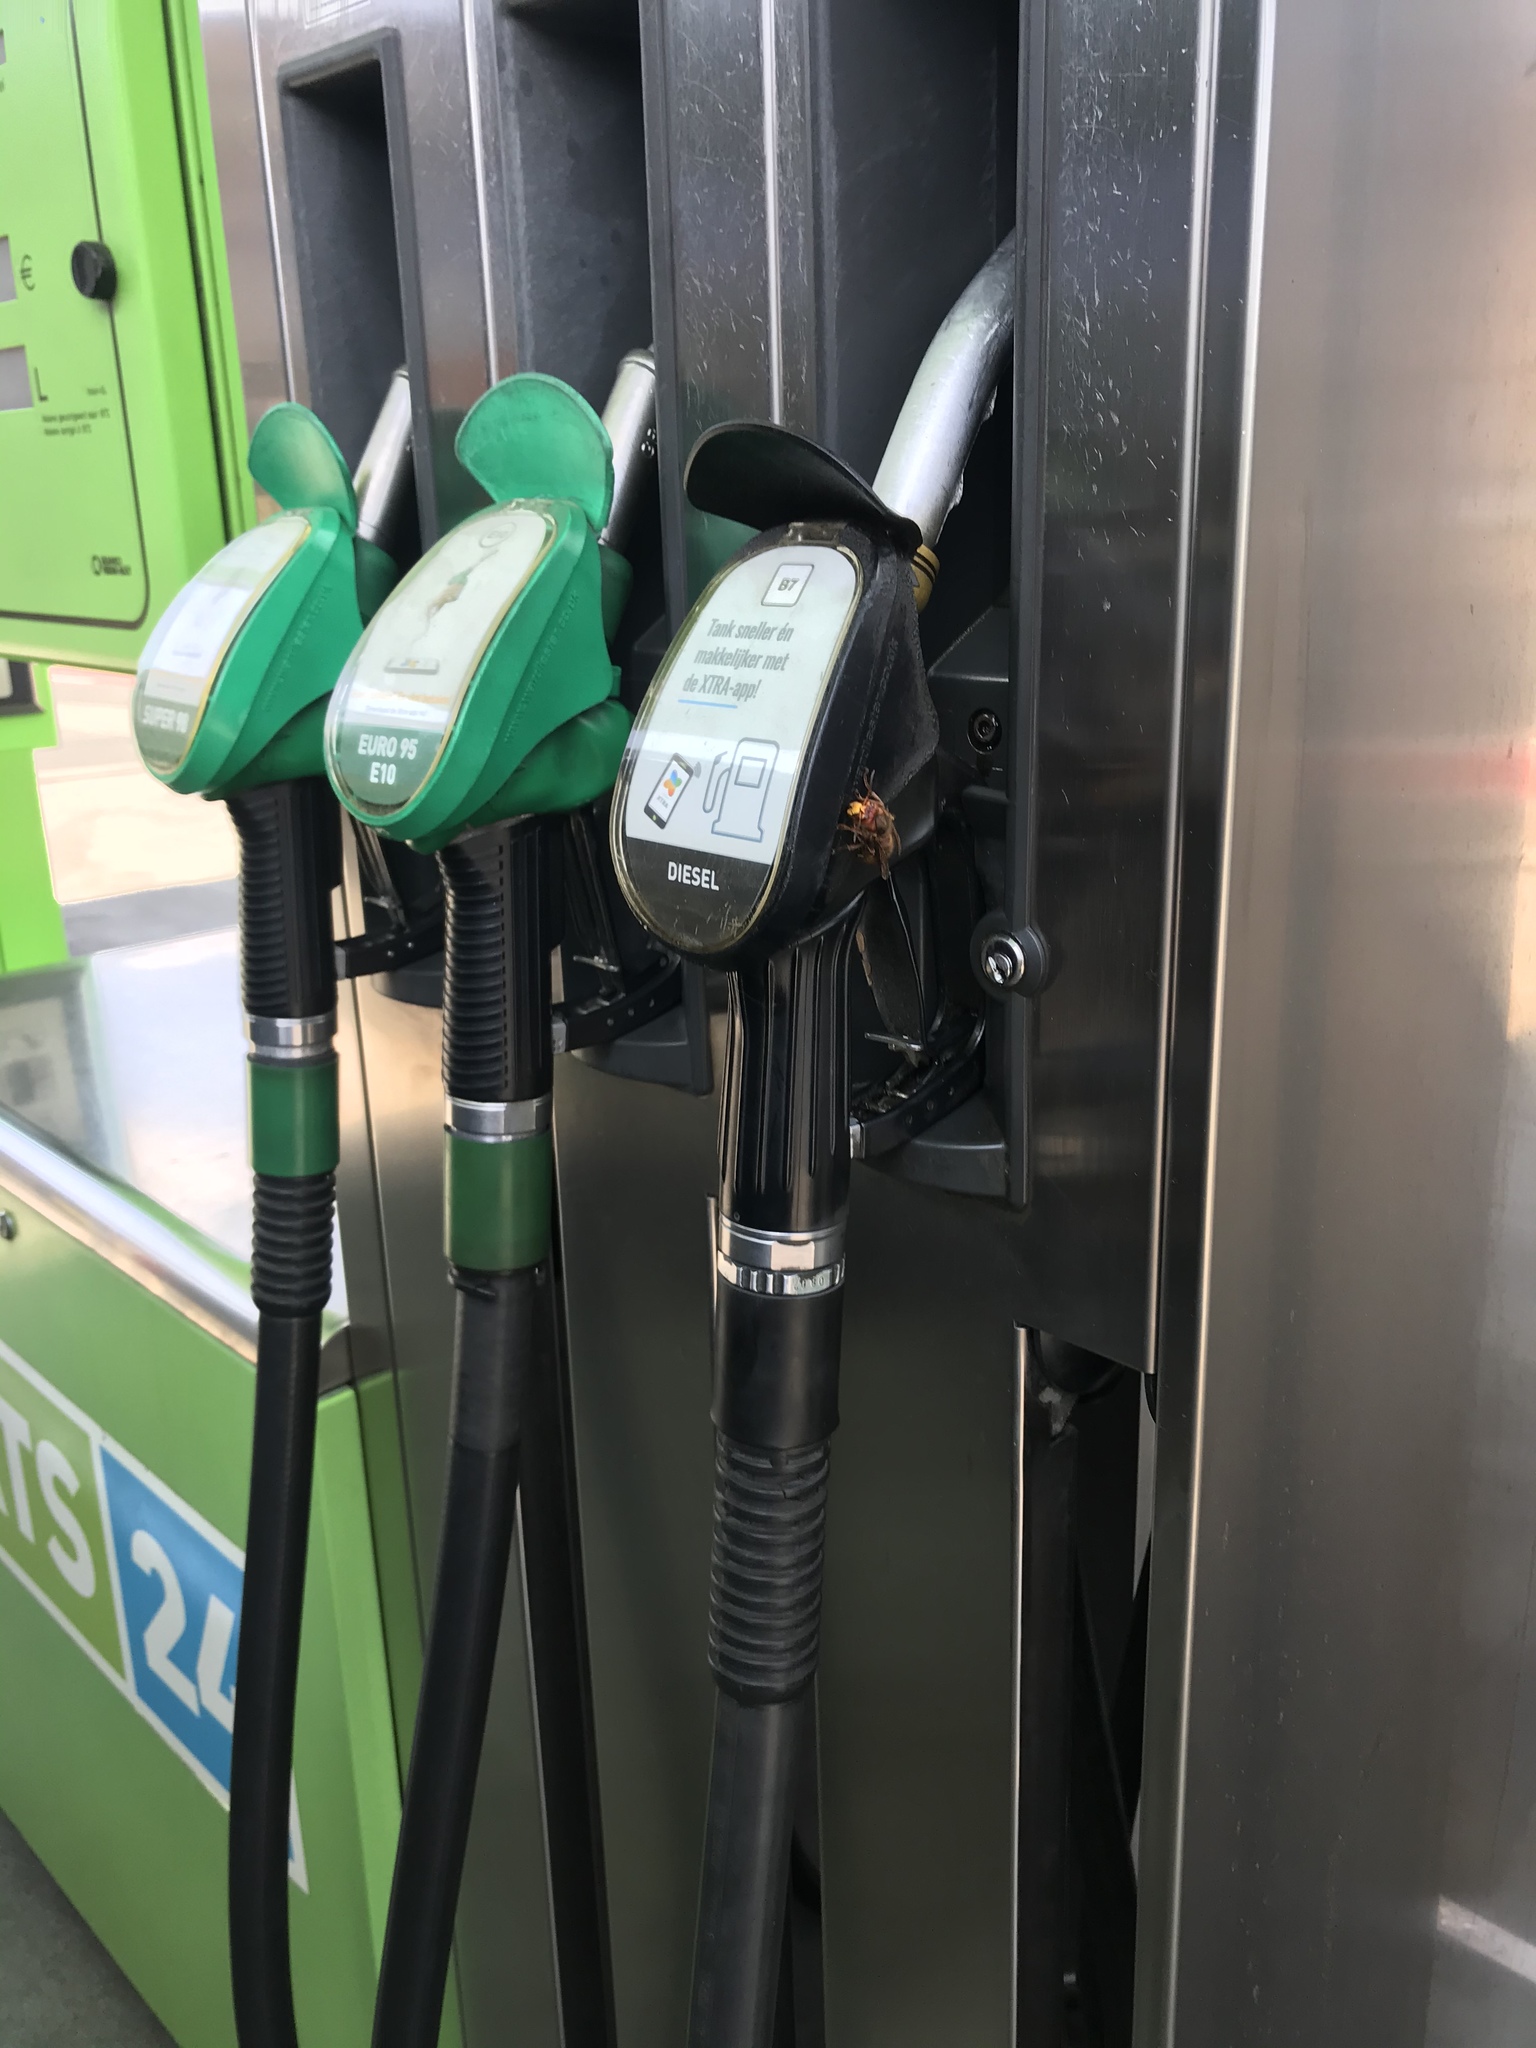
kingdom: Animalia
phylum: Arthropoda
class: Insecta
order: Hymenoptera
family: Vespidae
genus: Vespa
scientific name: Vespa crabro
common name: Hornet
